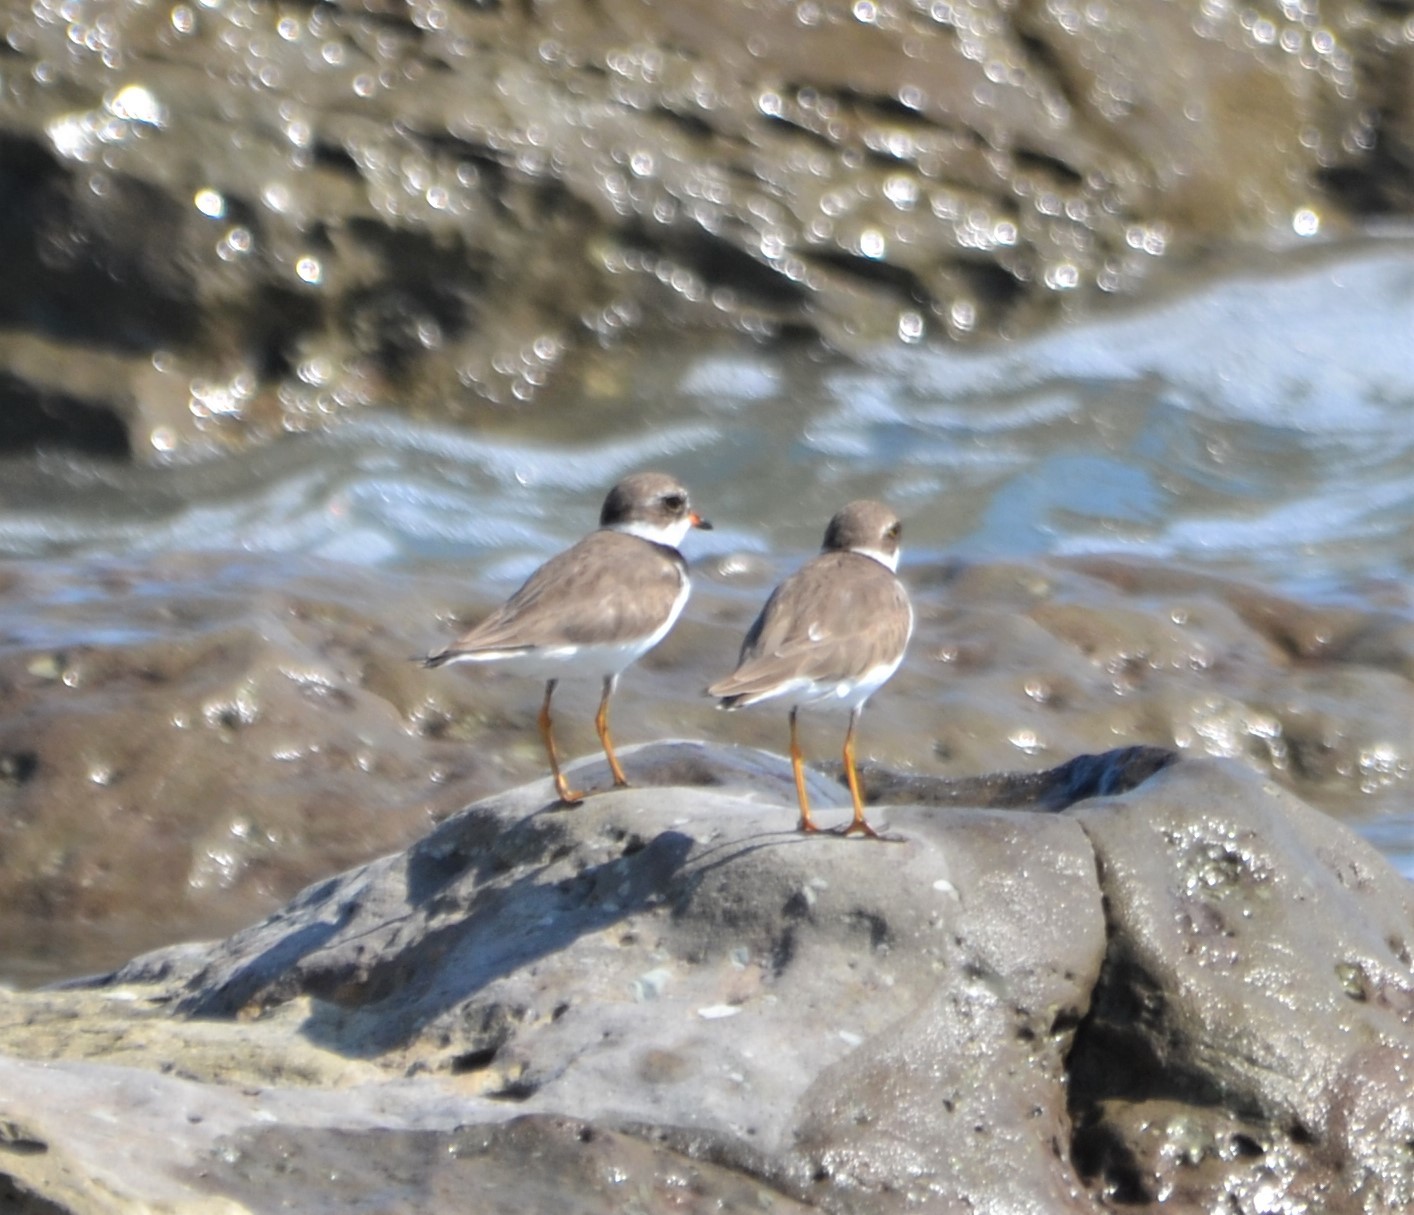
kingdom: Animalia
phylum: Chordata
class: Aves
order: Charadriiformes
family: Charadriidae
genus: Charadrius
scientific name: Charadrius semipalmatus
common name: Semipalmated plover
